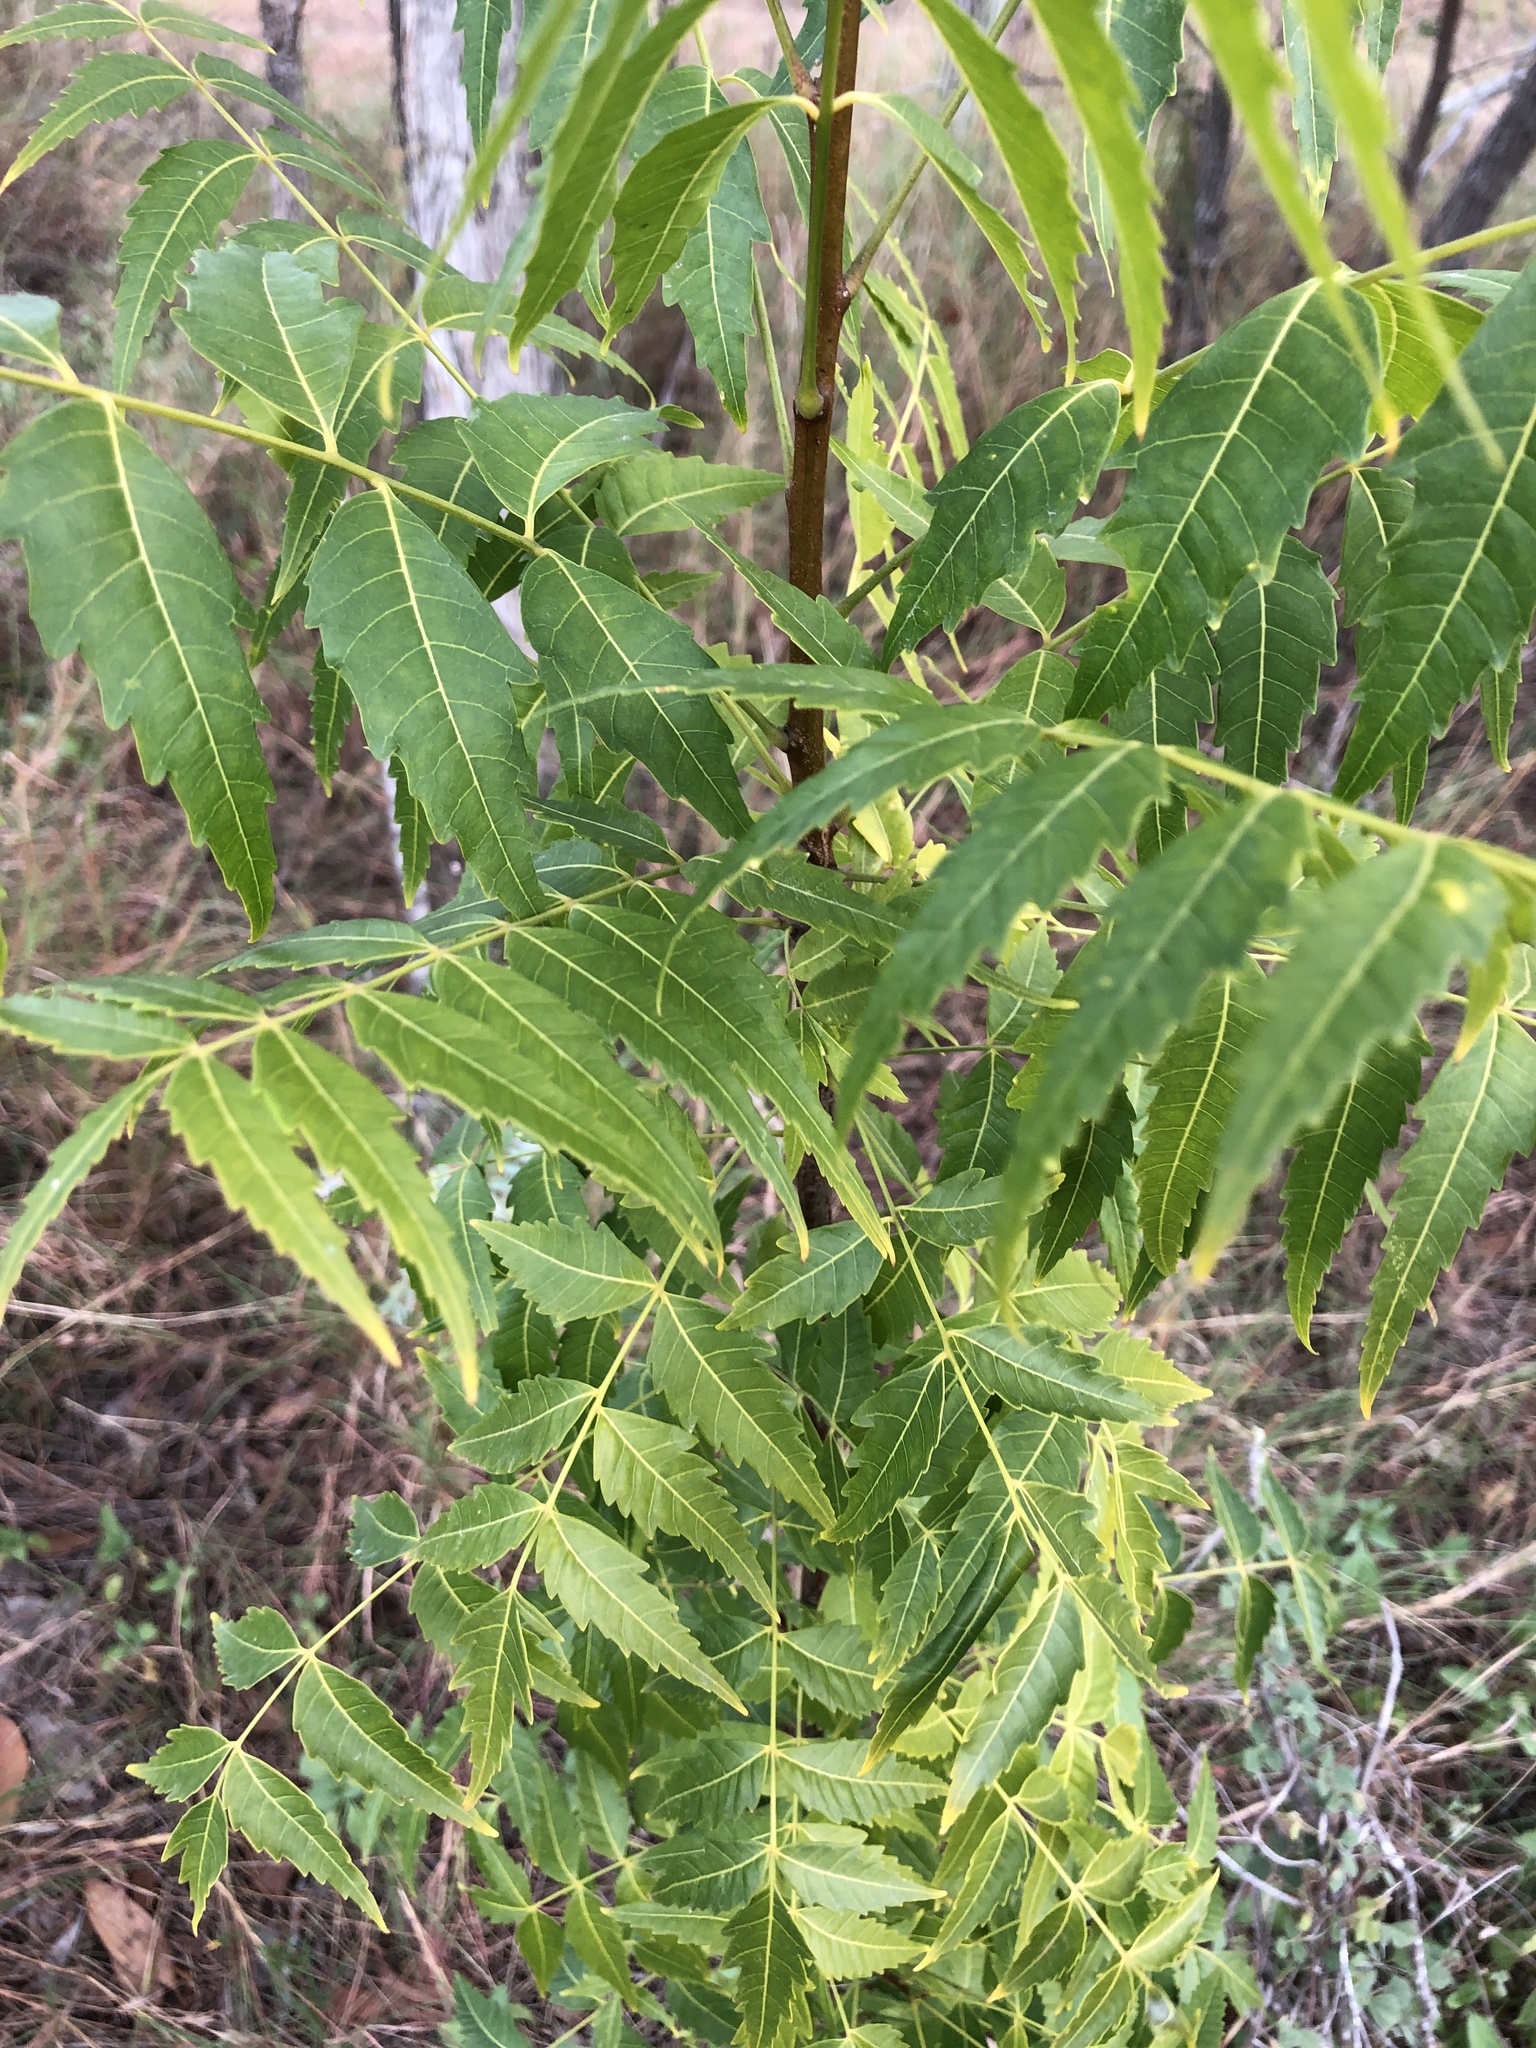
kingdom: Plantae
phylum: Tracheophyta
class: Magnoliopsida
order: Sapindales
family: Meliaceae
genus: Azadirachta
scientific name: Azadirachta indica
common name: Neem
